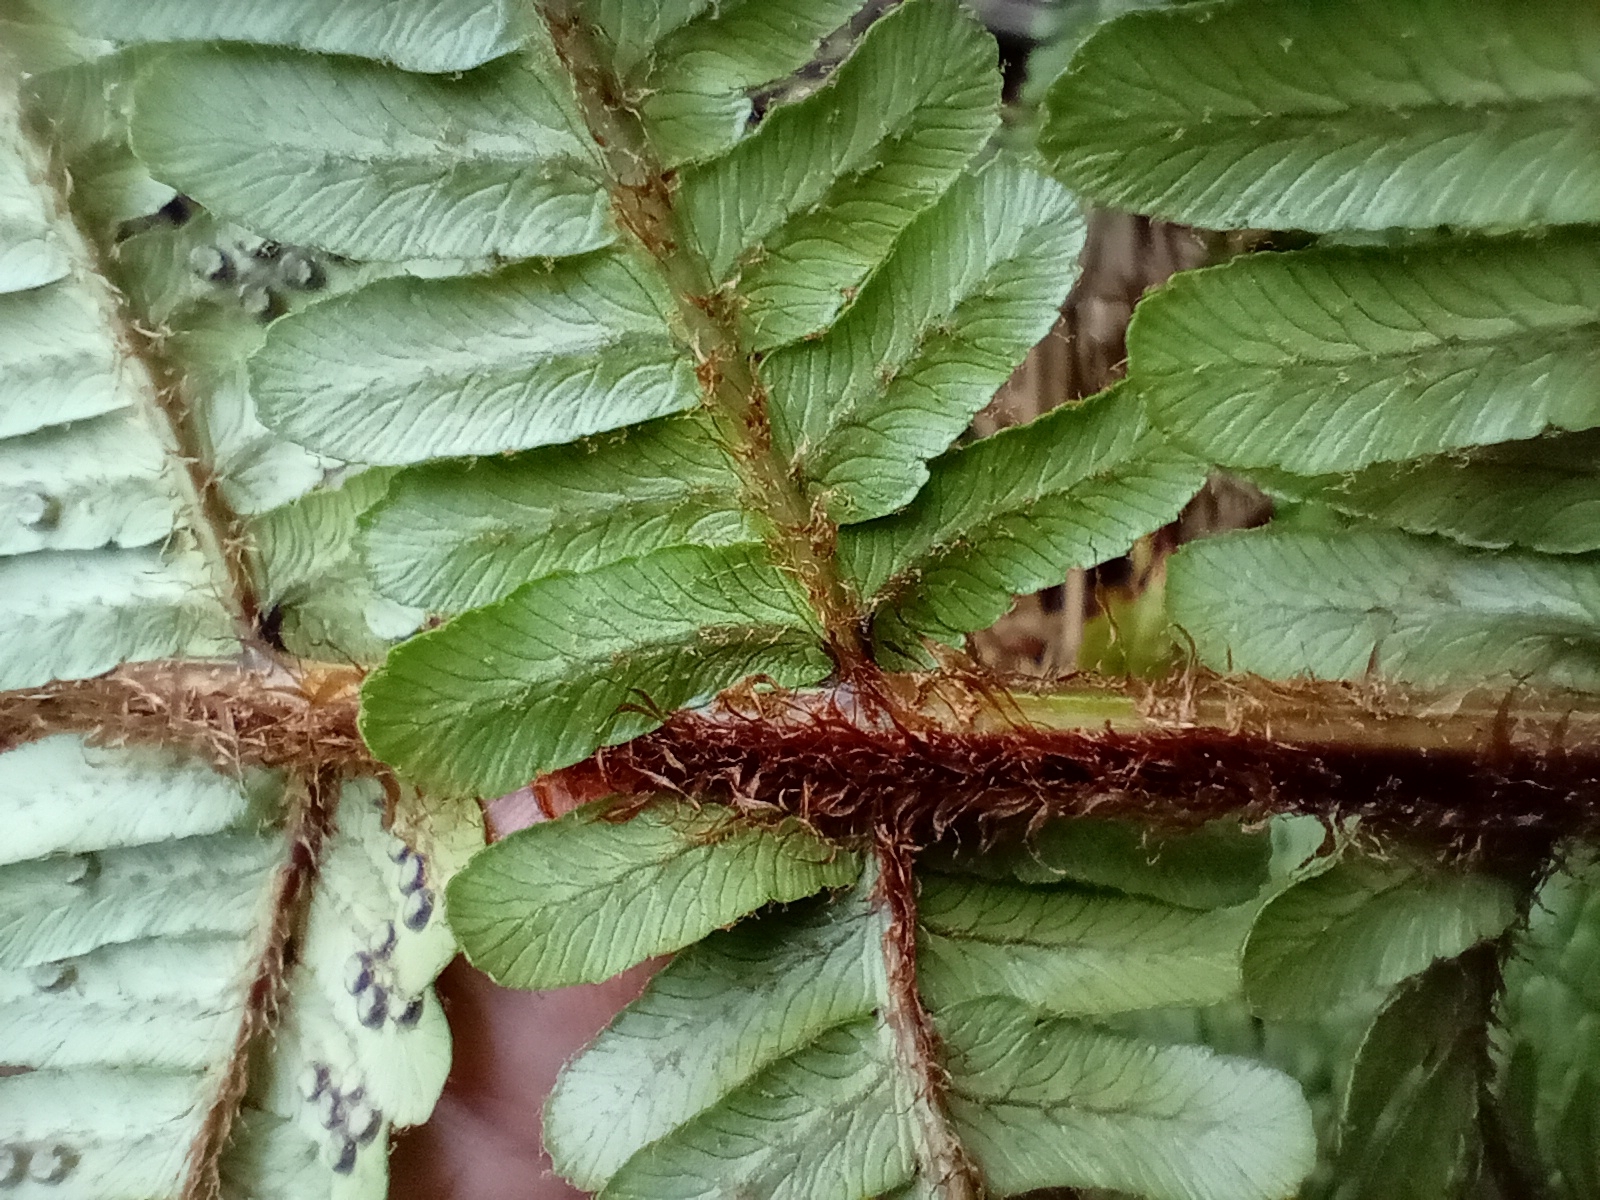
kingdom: Plantae
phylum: Tracheophyta
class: Polypodiopsida
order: Polypodiales
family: Dryopteridaceae
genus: Dryopteris
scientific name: Dryopteris affinis
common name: Scaly male fern
